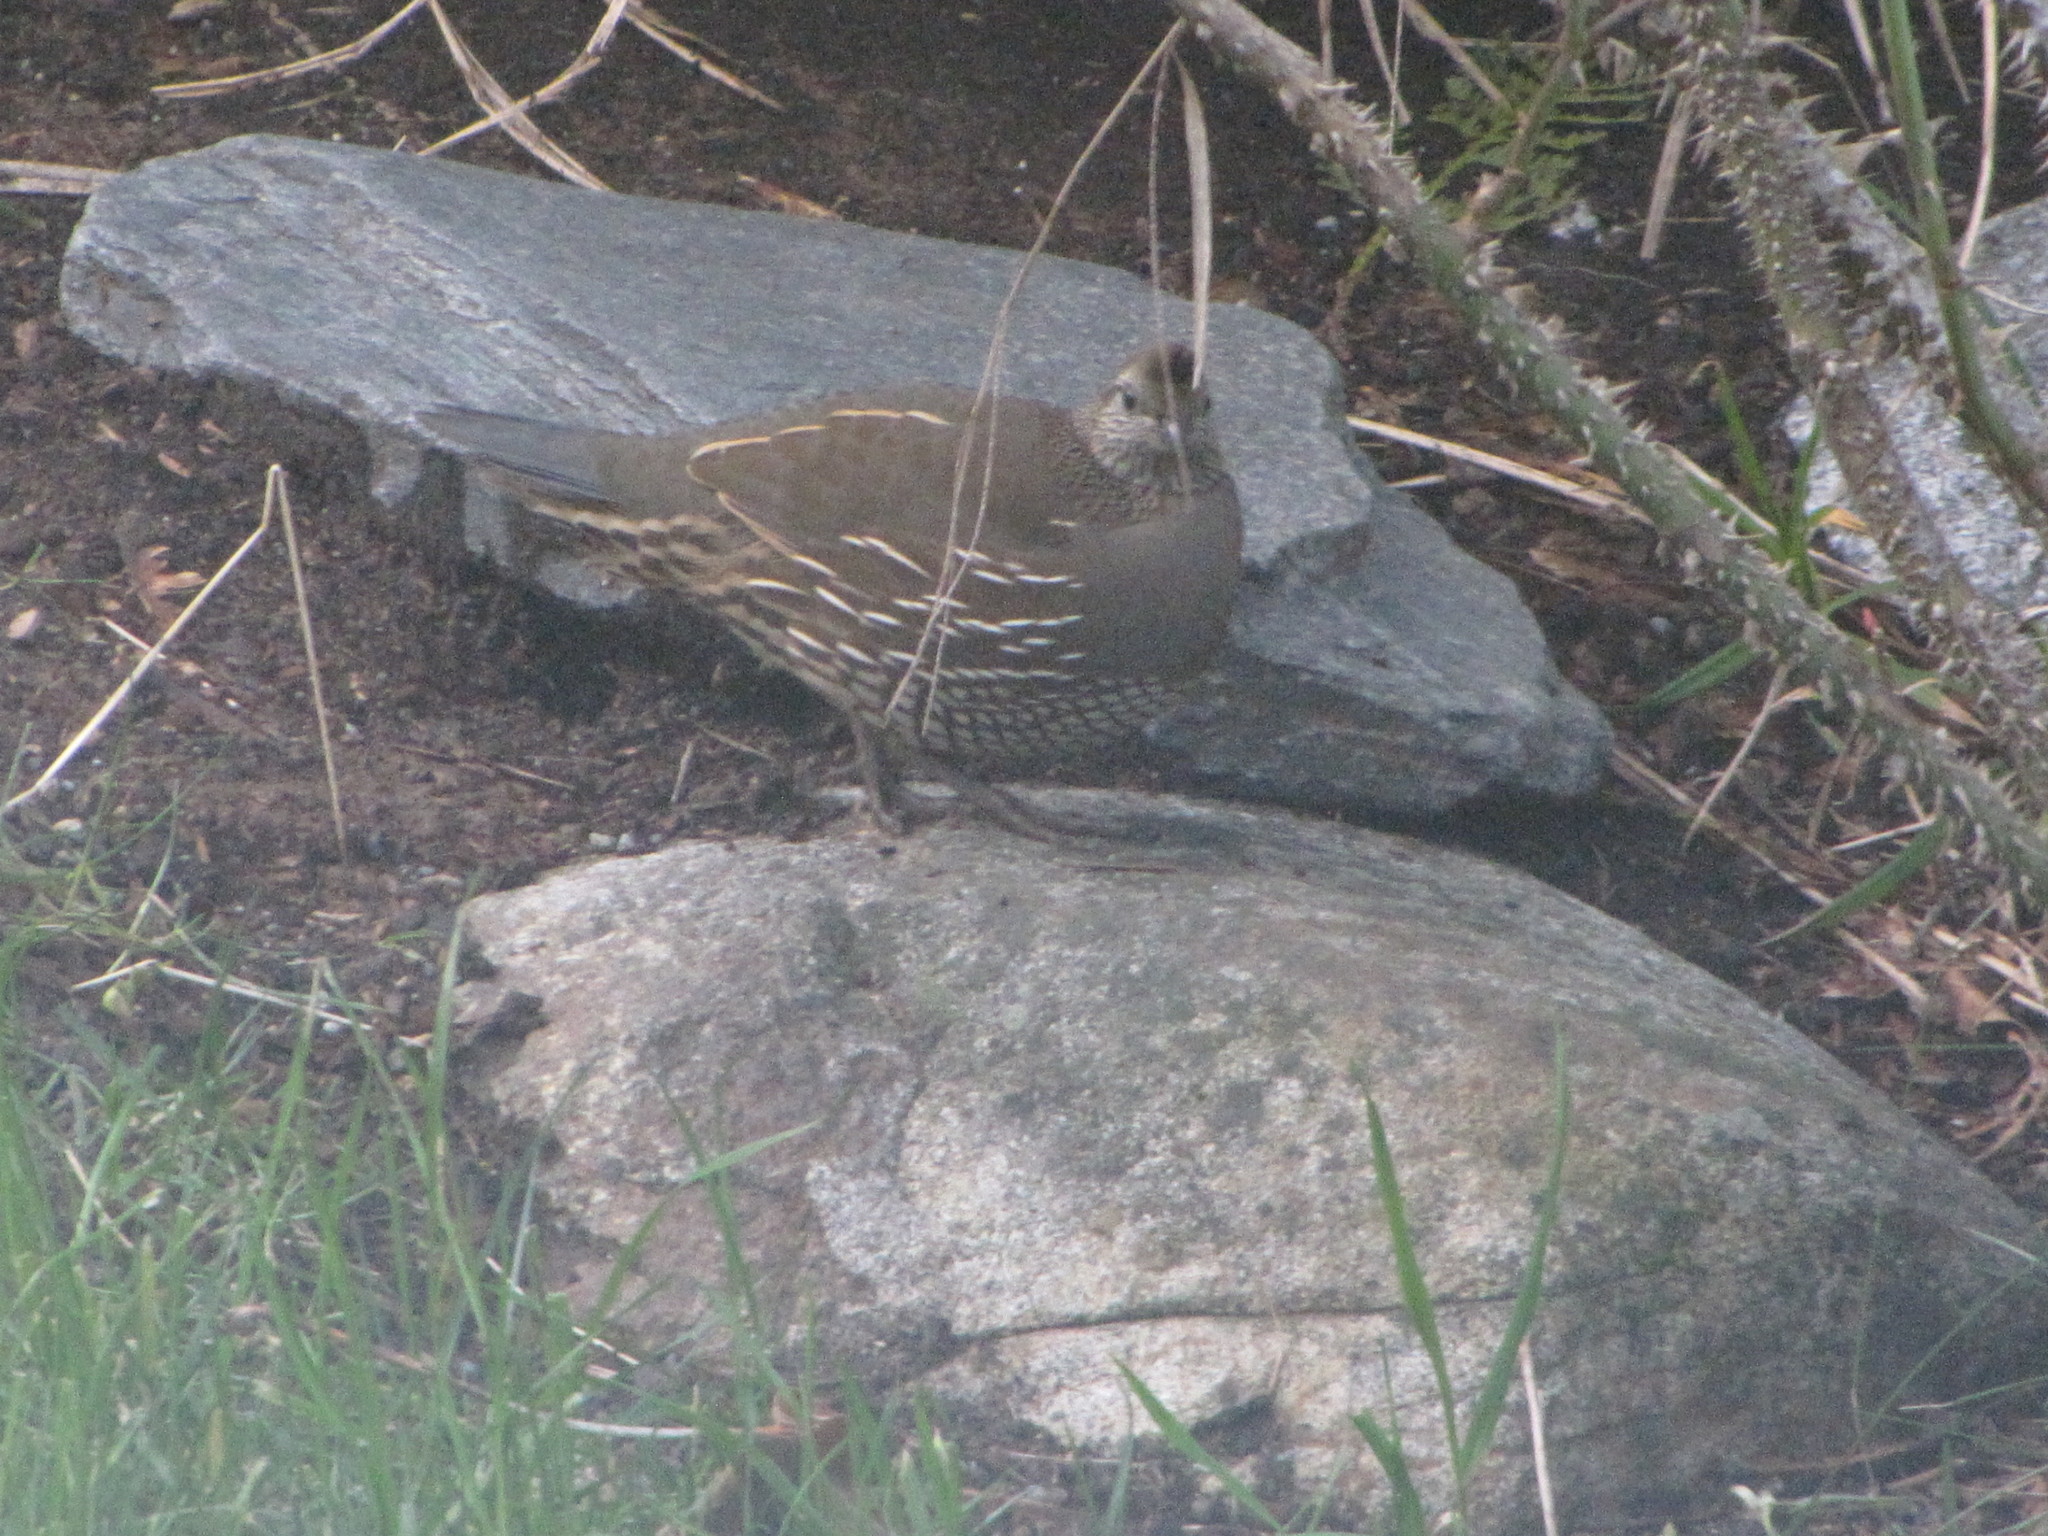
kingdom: Animalia
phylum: Chordata
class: Aves
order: Galliformes
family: Odontophoridae
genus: Callipepla
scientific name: Callipepla californica
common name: California quail
